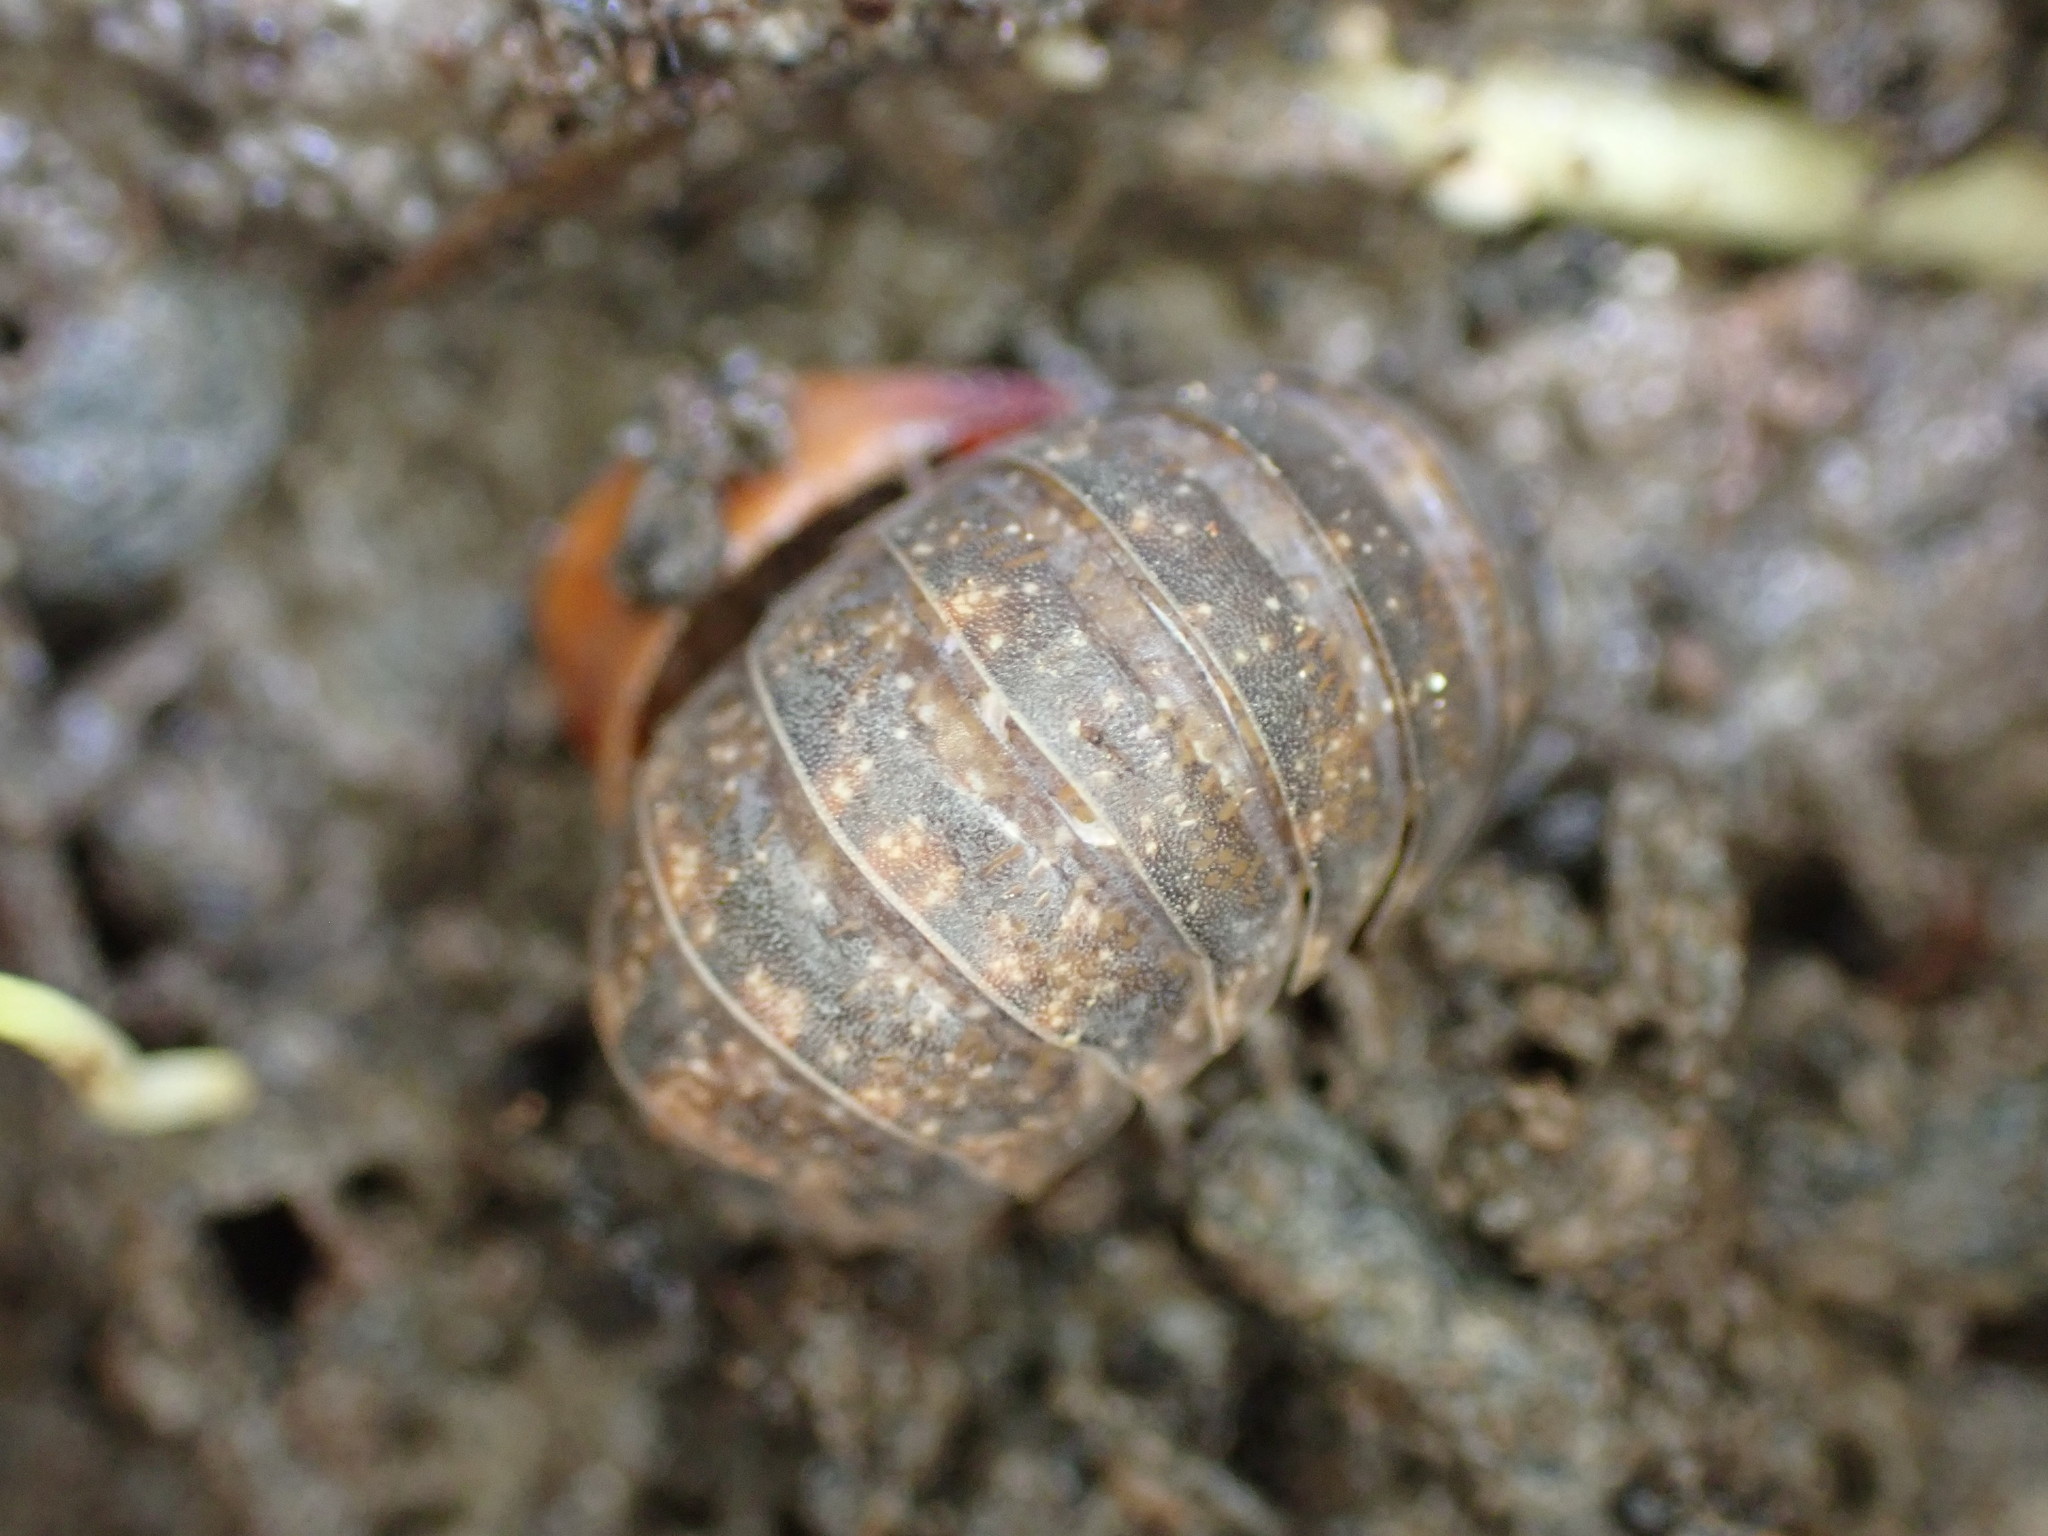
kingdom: Animalia
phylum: Arthropoda
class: Malacostraca
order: Isopoda
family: Armadillidae
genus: Spherillo
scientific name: Spherillo
